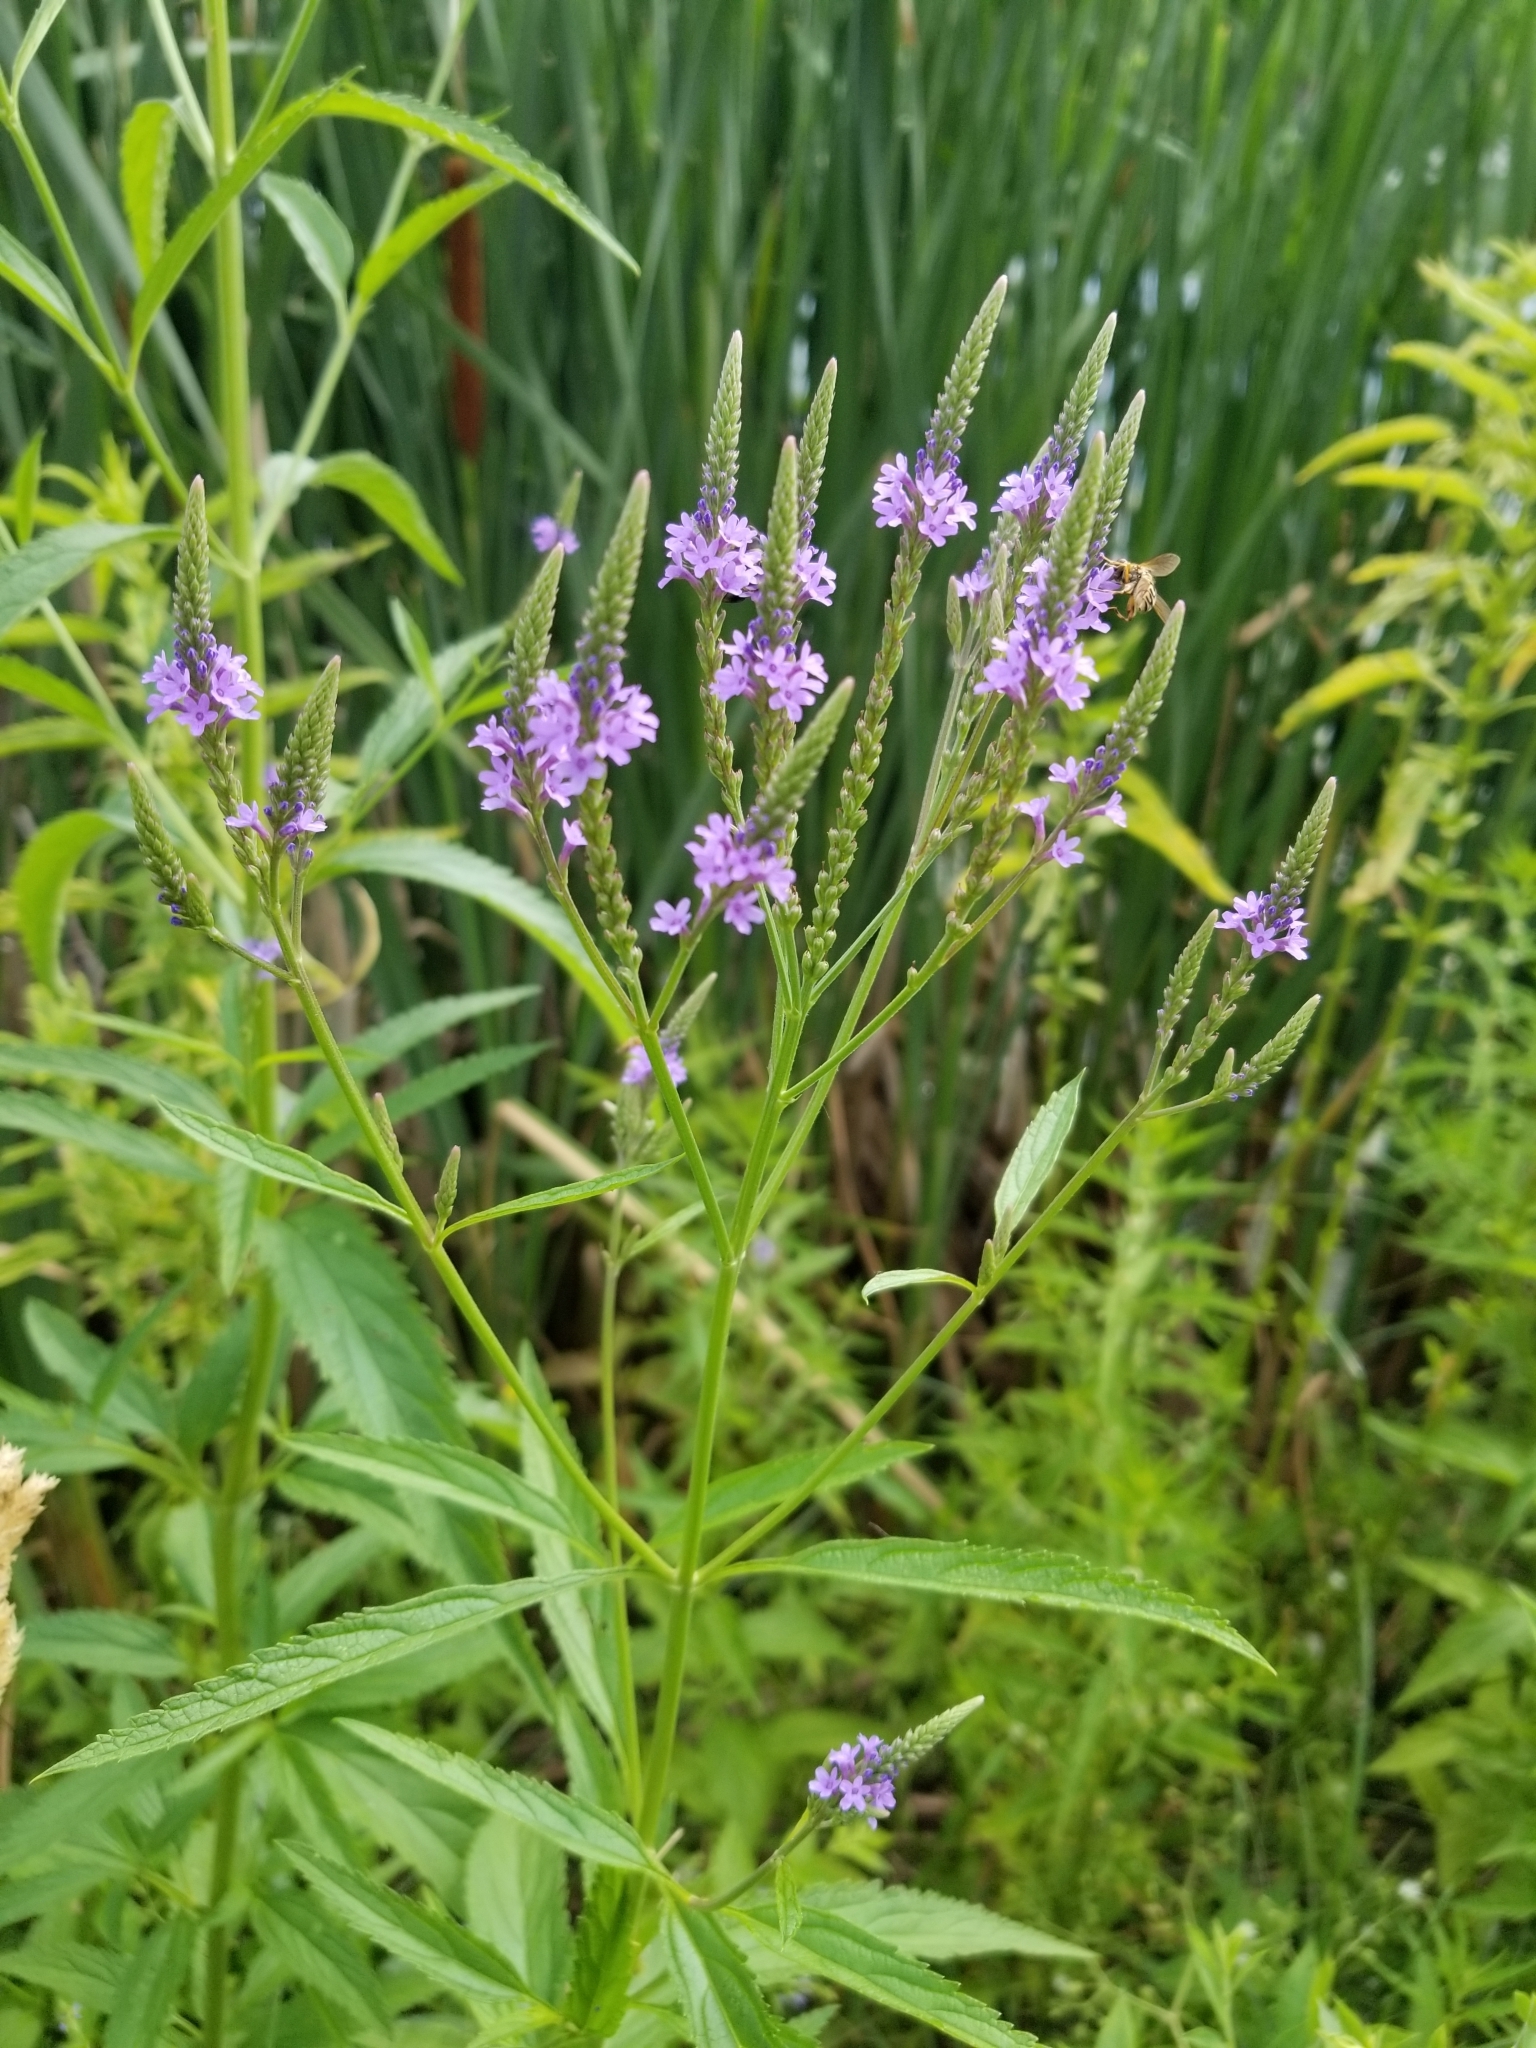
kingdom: Plantae
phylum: Tracheophyta
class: Magnoliopsida
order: Lamiales
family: Verbenaceae
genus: Verbena
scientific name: Verbena hastata
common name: American blue vervain
